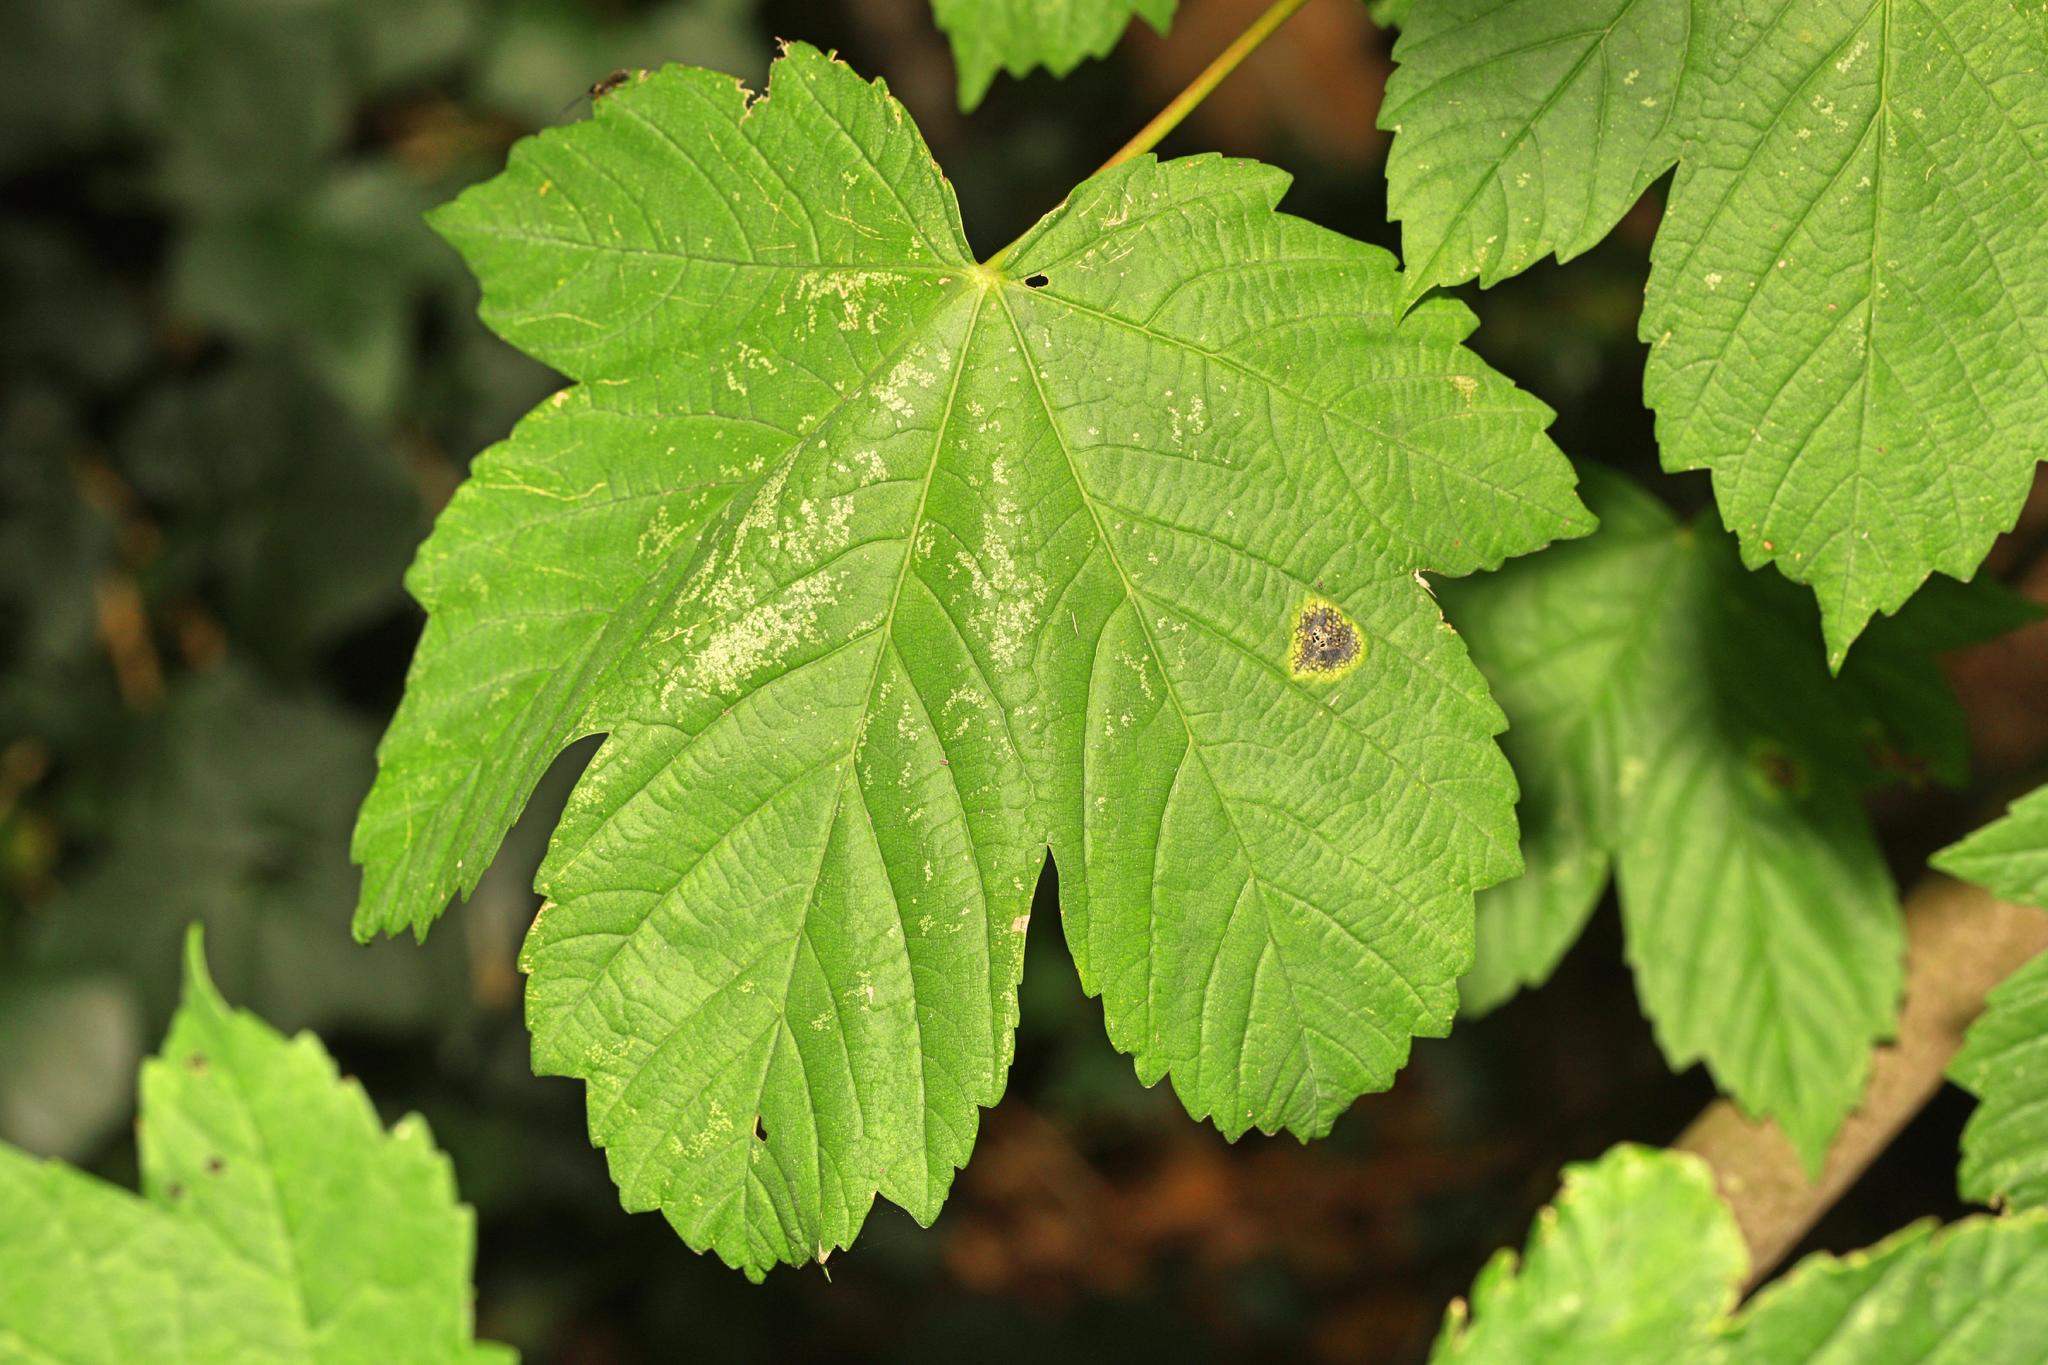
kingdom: Fungi
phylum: Ascomycota
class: Leotiomycetes
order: Rhytismatales
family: Rhytismataceae
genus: Rhytisma
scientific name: Rhytisma acerinum
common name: European tar spot
